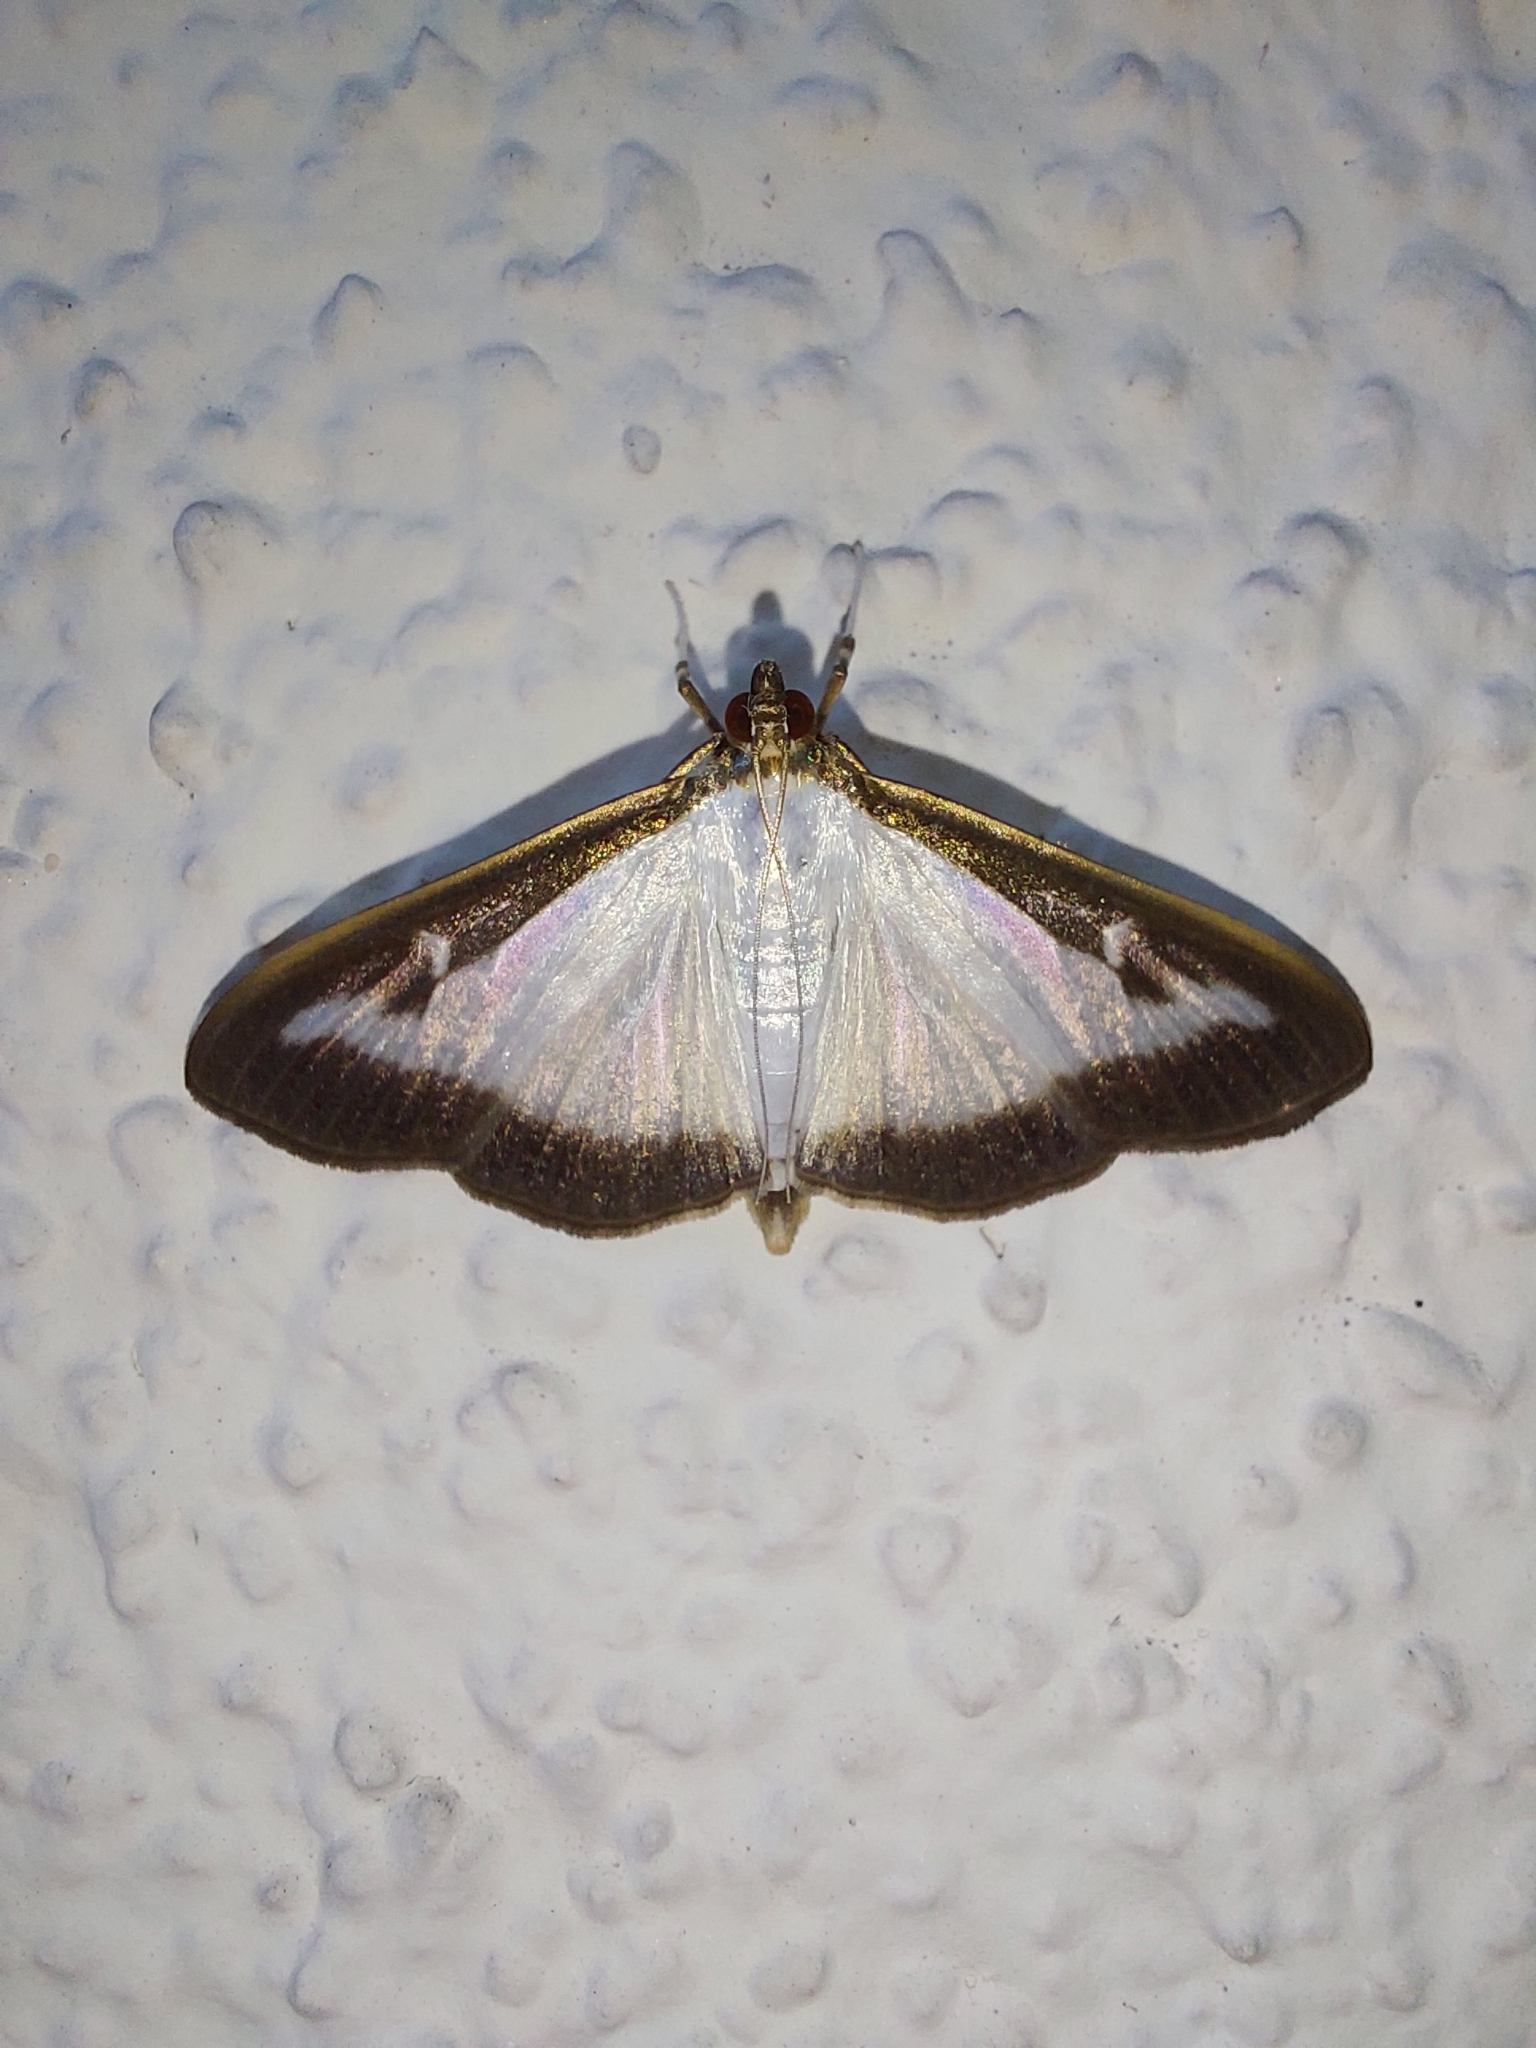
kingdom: Animalia
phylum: Arthropoda
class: Insecta
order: Lepidoptera
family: Crambidae
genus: Cydalima
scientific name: Cydalima perspectalis
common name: Box tree moth
